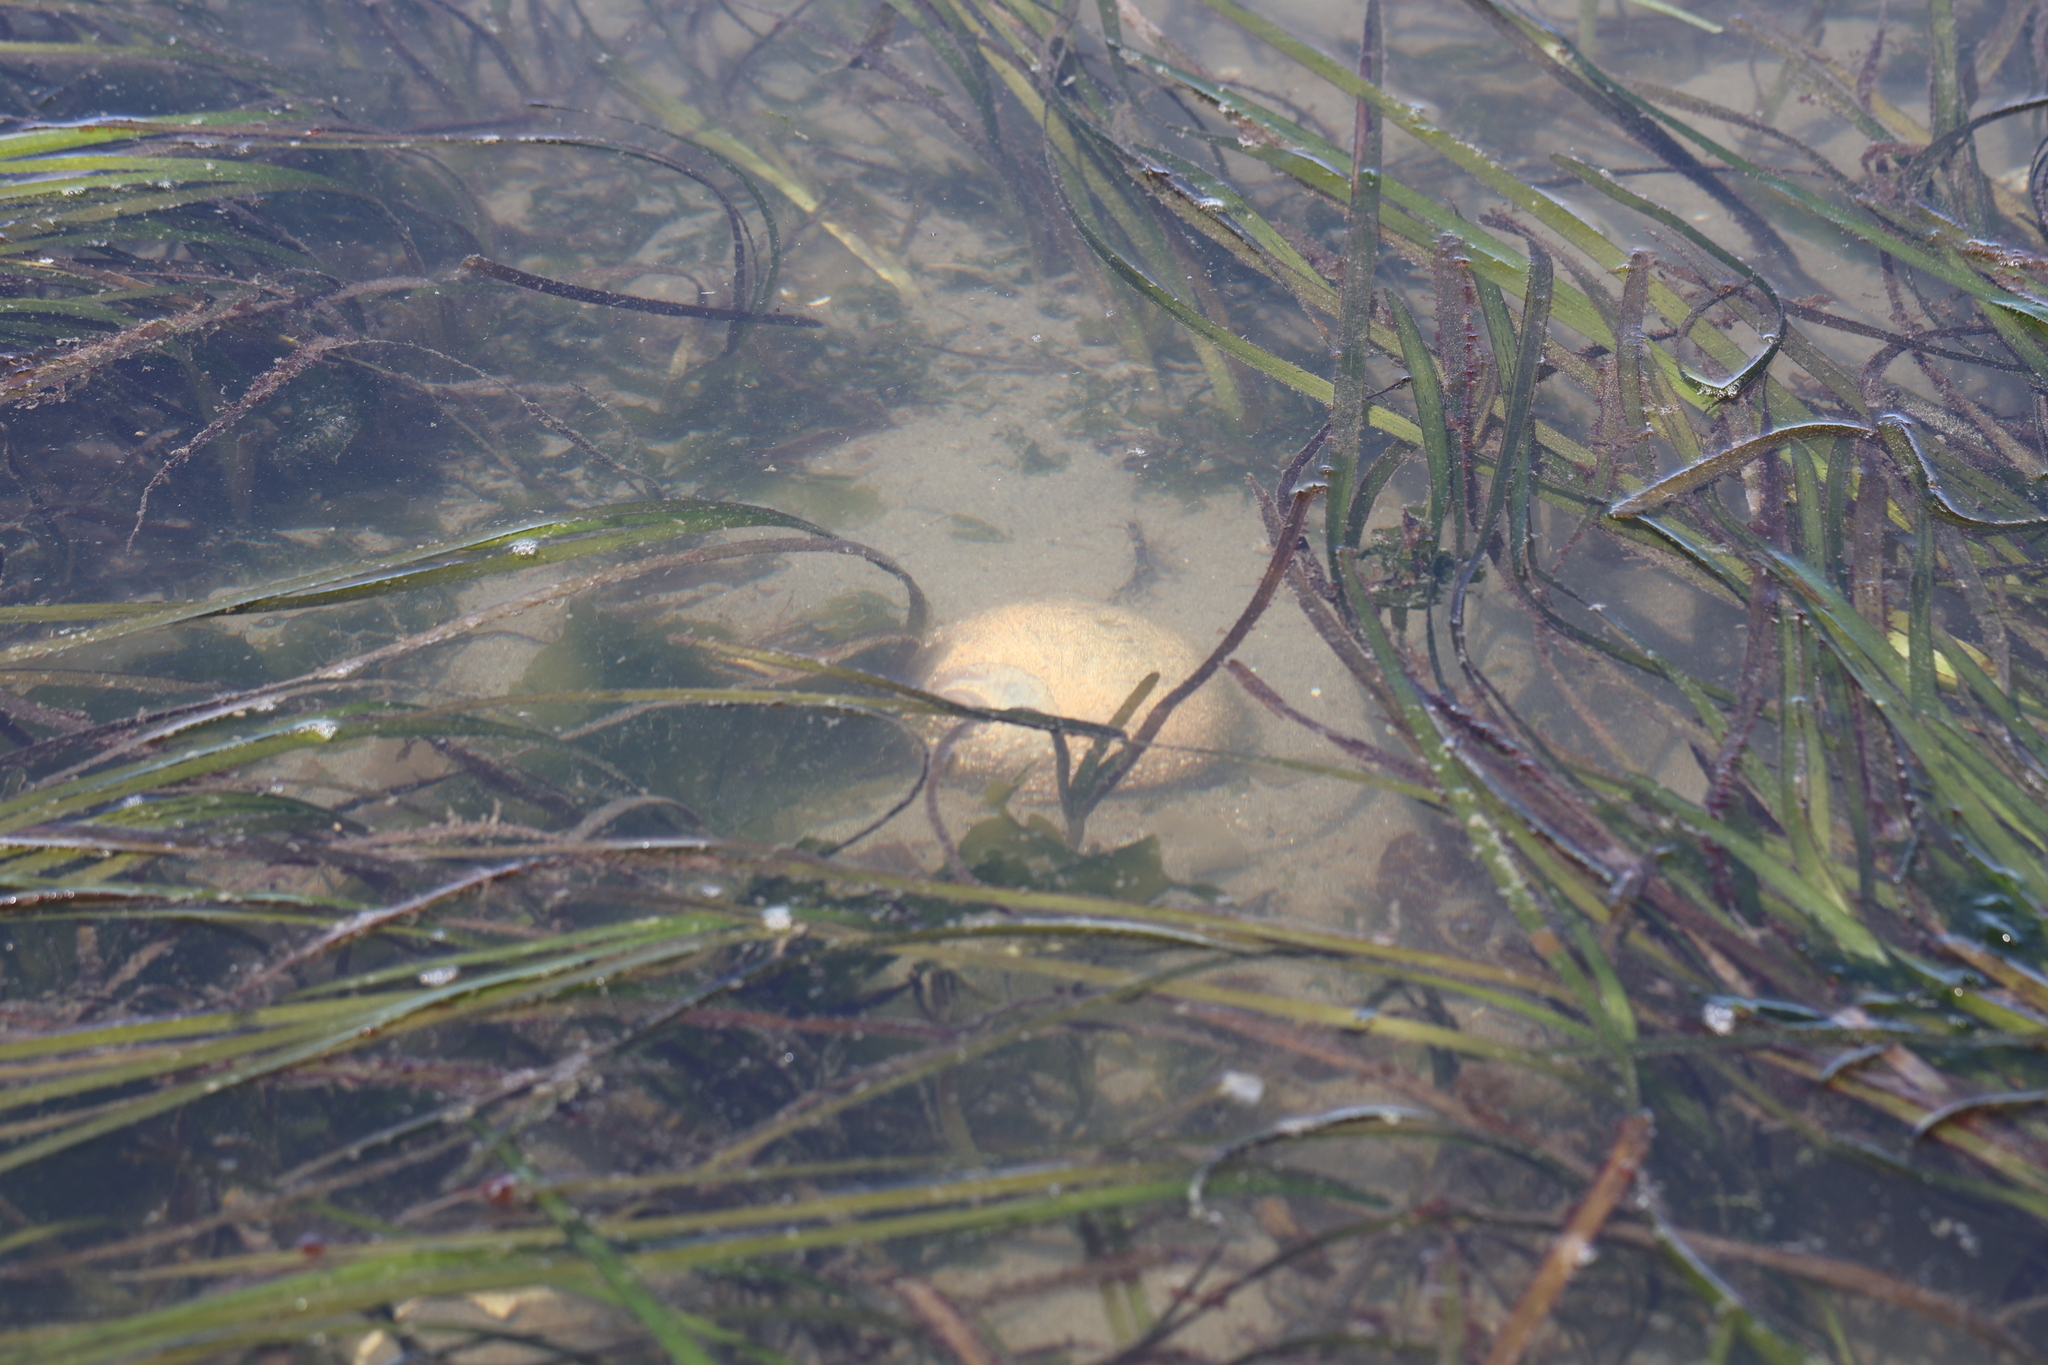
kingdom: Animalia
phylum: Mollusca
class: Gastropoda
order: Littorinimorpha
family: Naticidae
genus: Neverita
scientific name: Neverita lewisii
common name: Lewis' moonsnail
